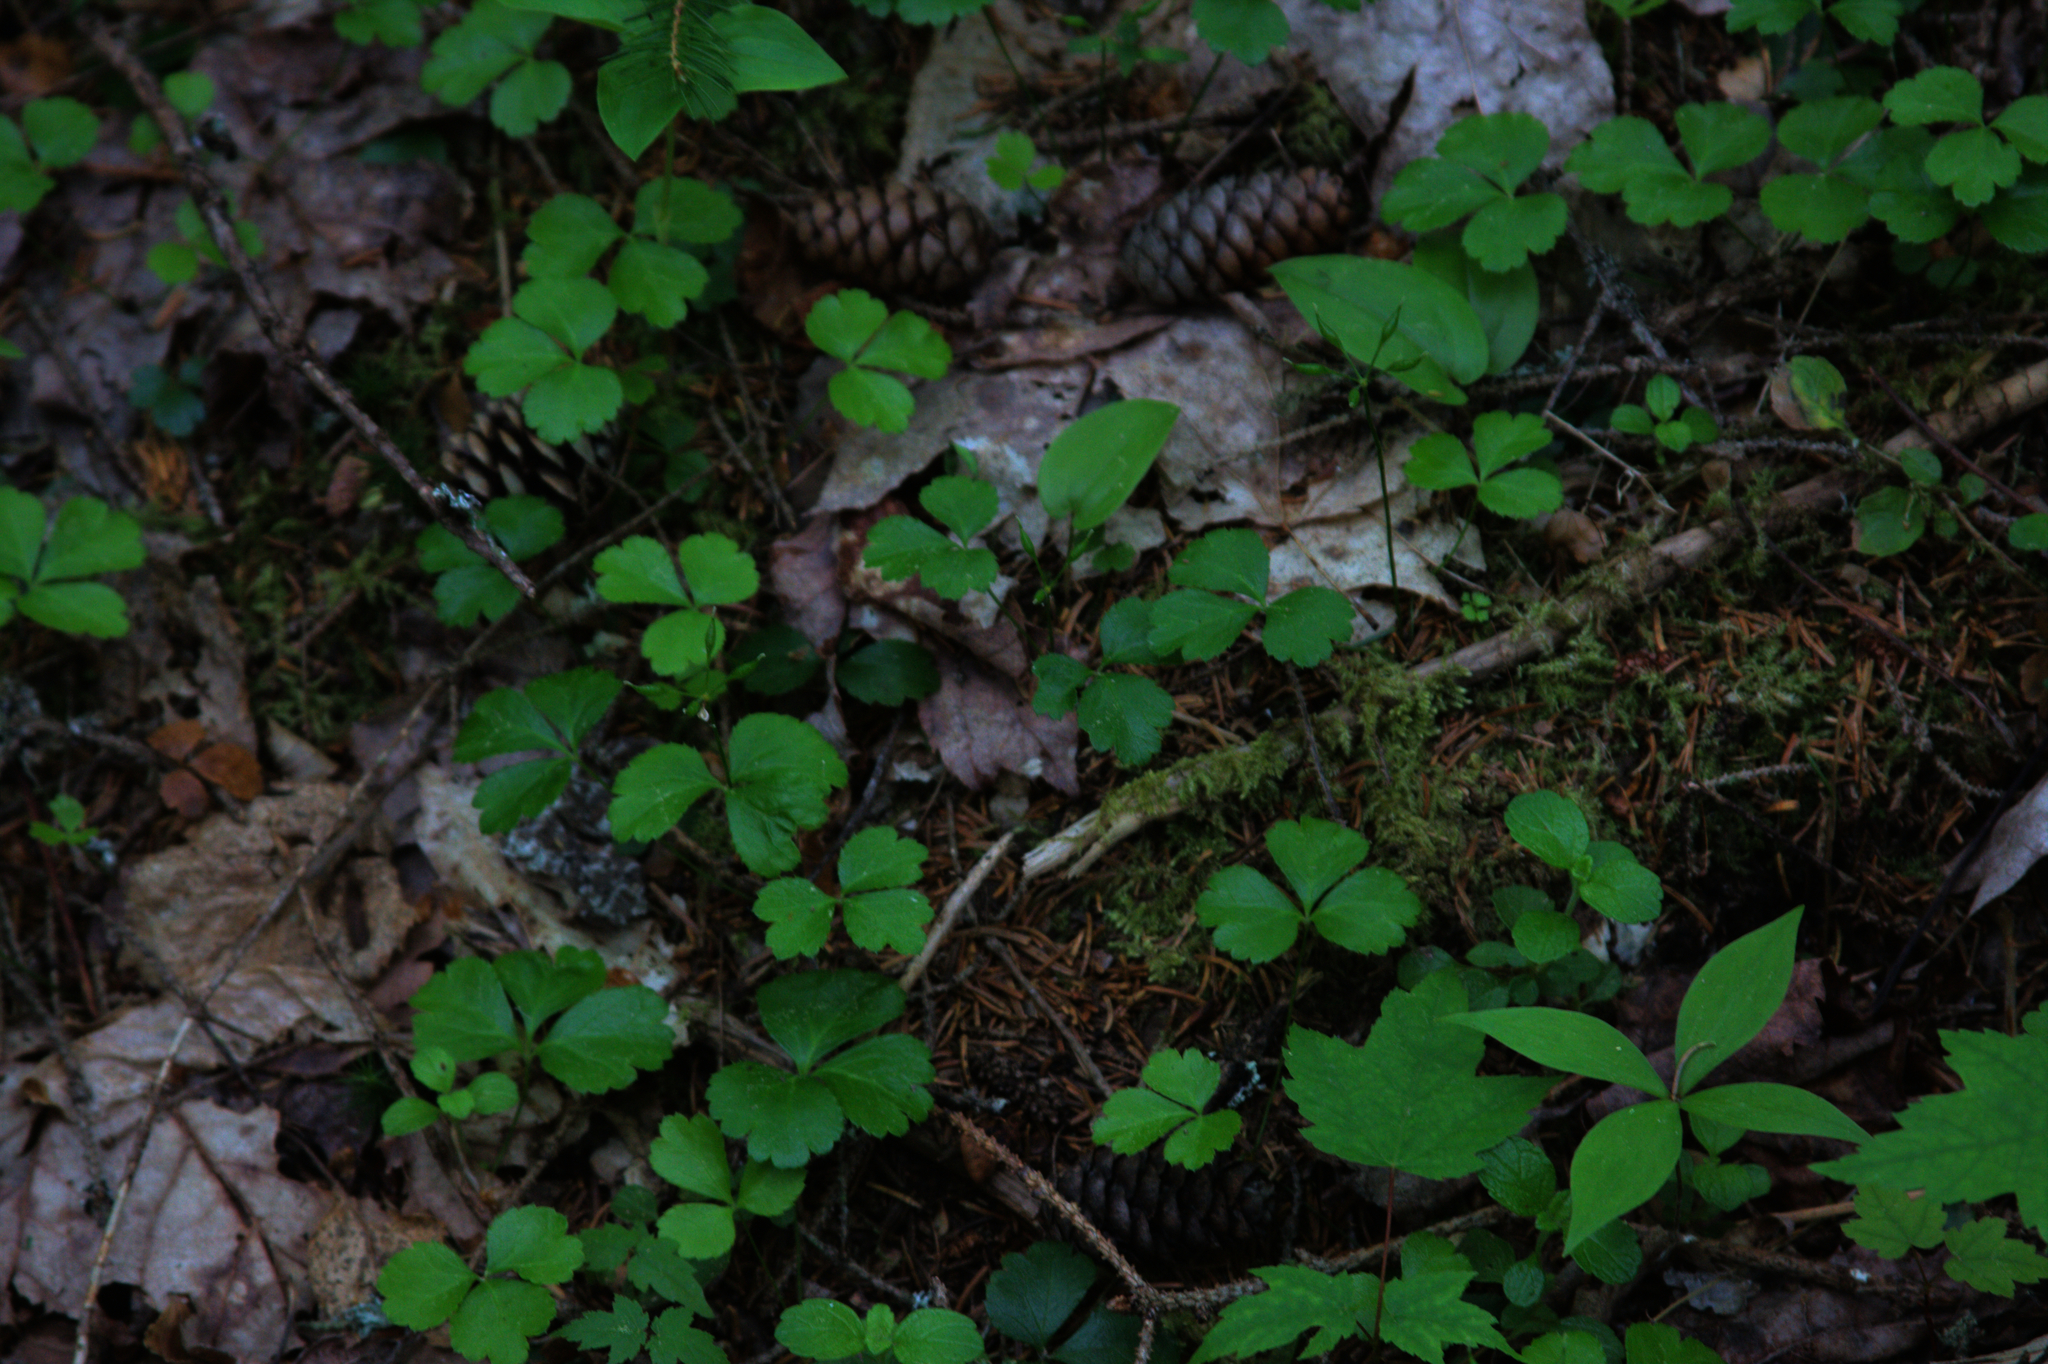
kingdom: Plantae
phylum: Tracheophyta
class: Magnoliopsida
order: Ranunculales
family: Ranunculaceae
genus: Coptis
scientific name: Coptis trifolia
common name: Canker-root
